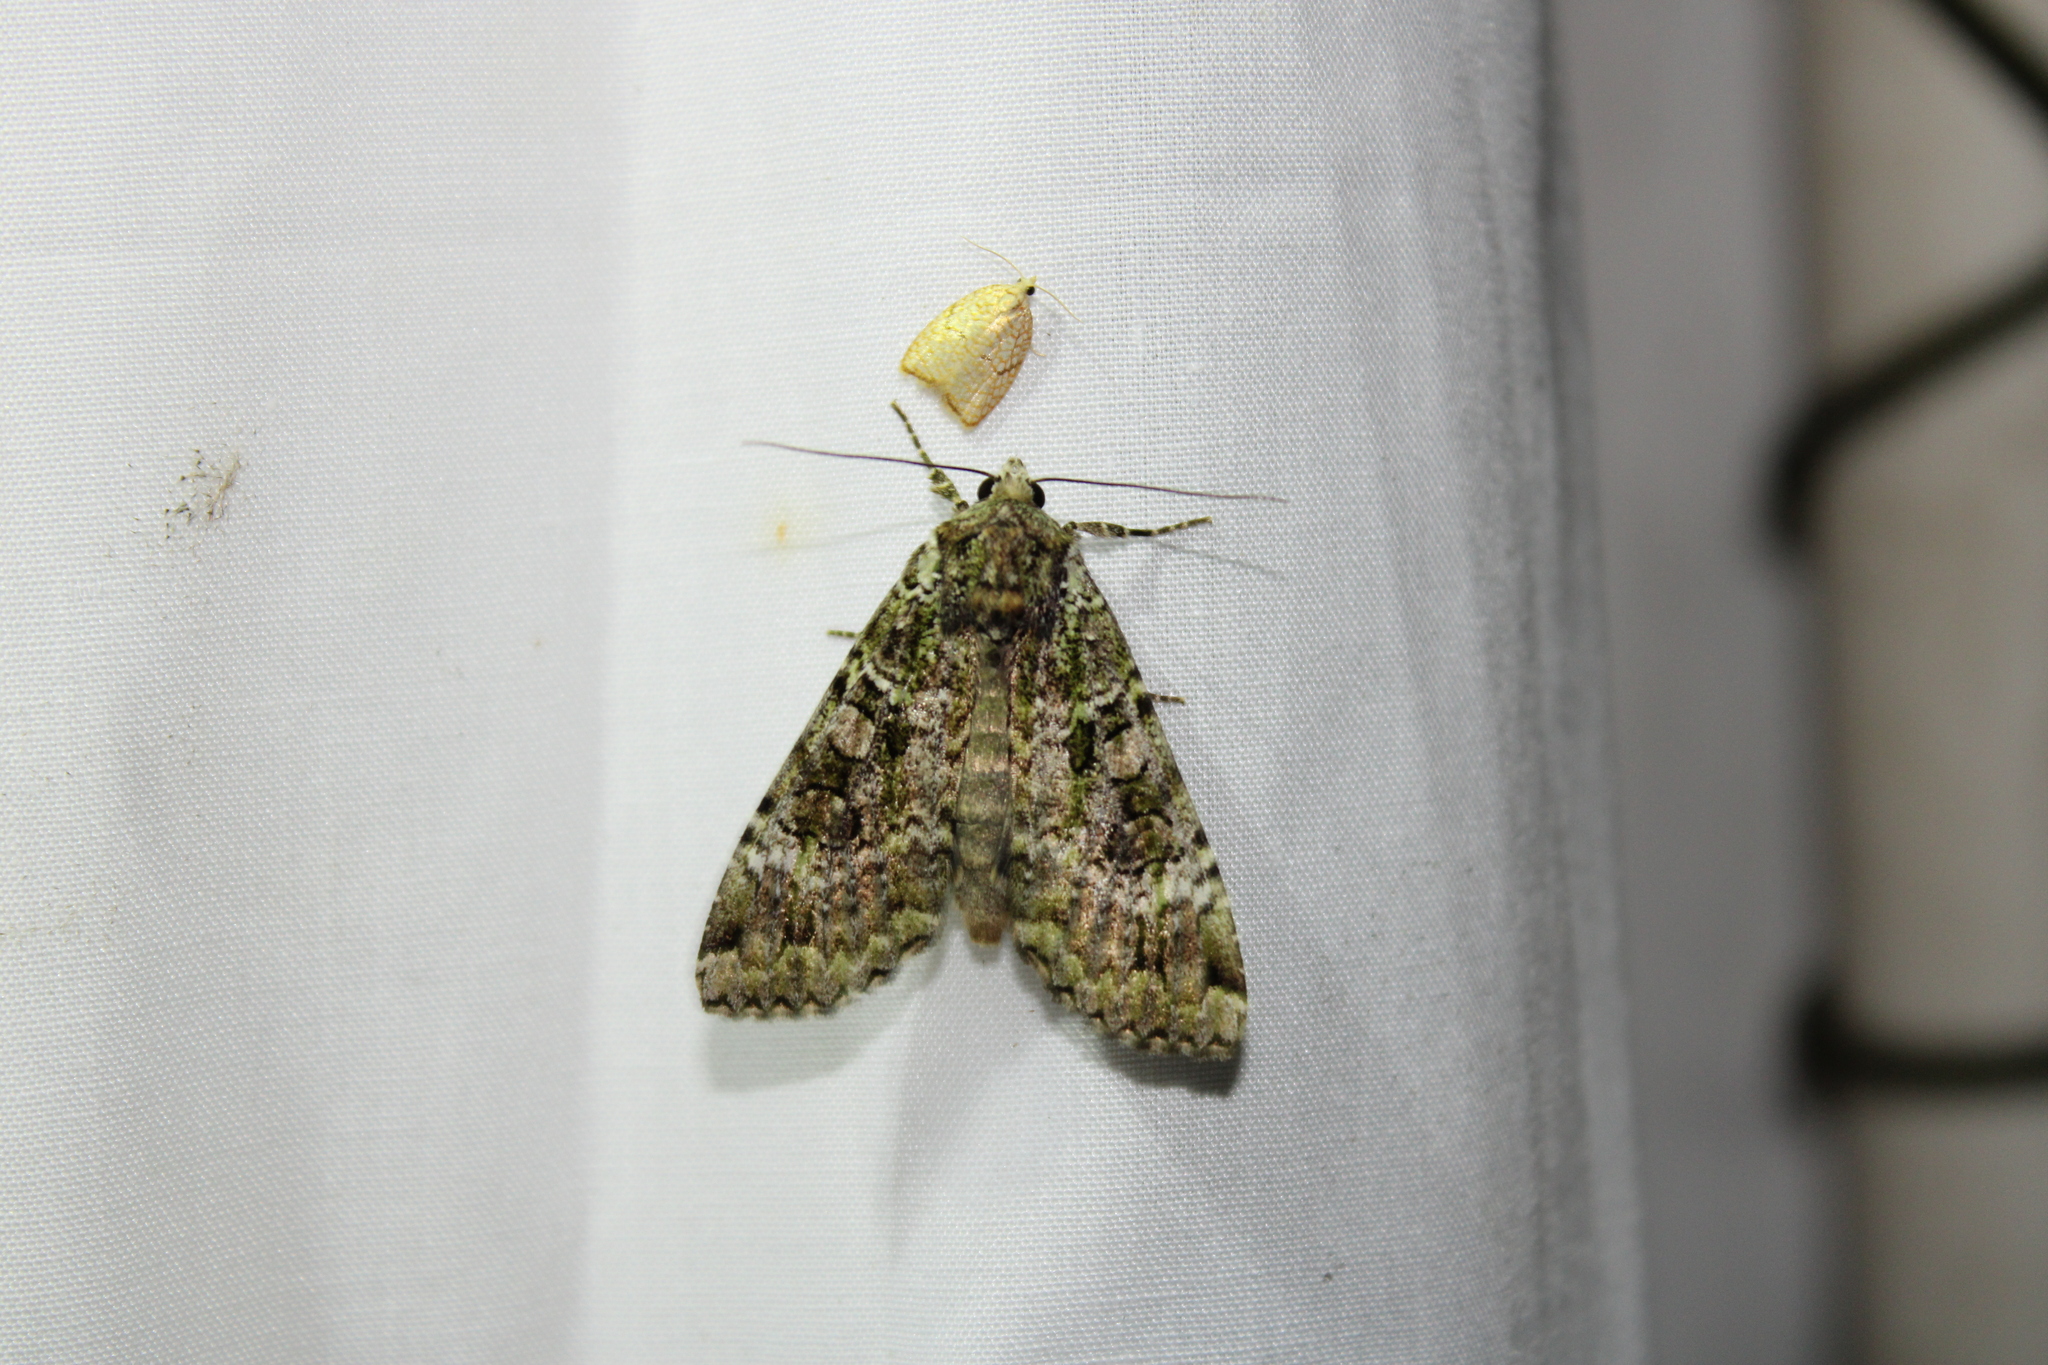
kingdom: Animalia
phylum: Arthropoda
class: Insecta
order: Lepidoptera
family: Noctuidae
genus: Anaplectoides
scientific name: Anaplectoides prasina
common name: Green arches
